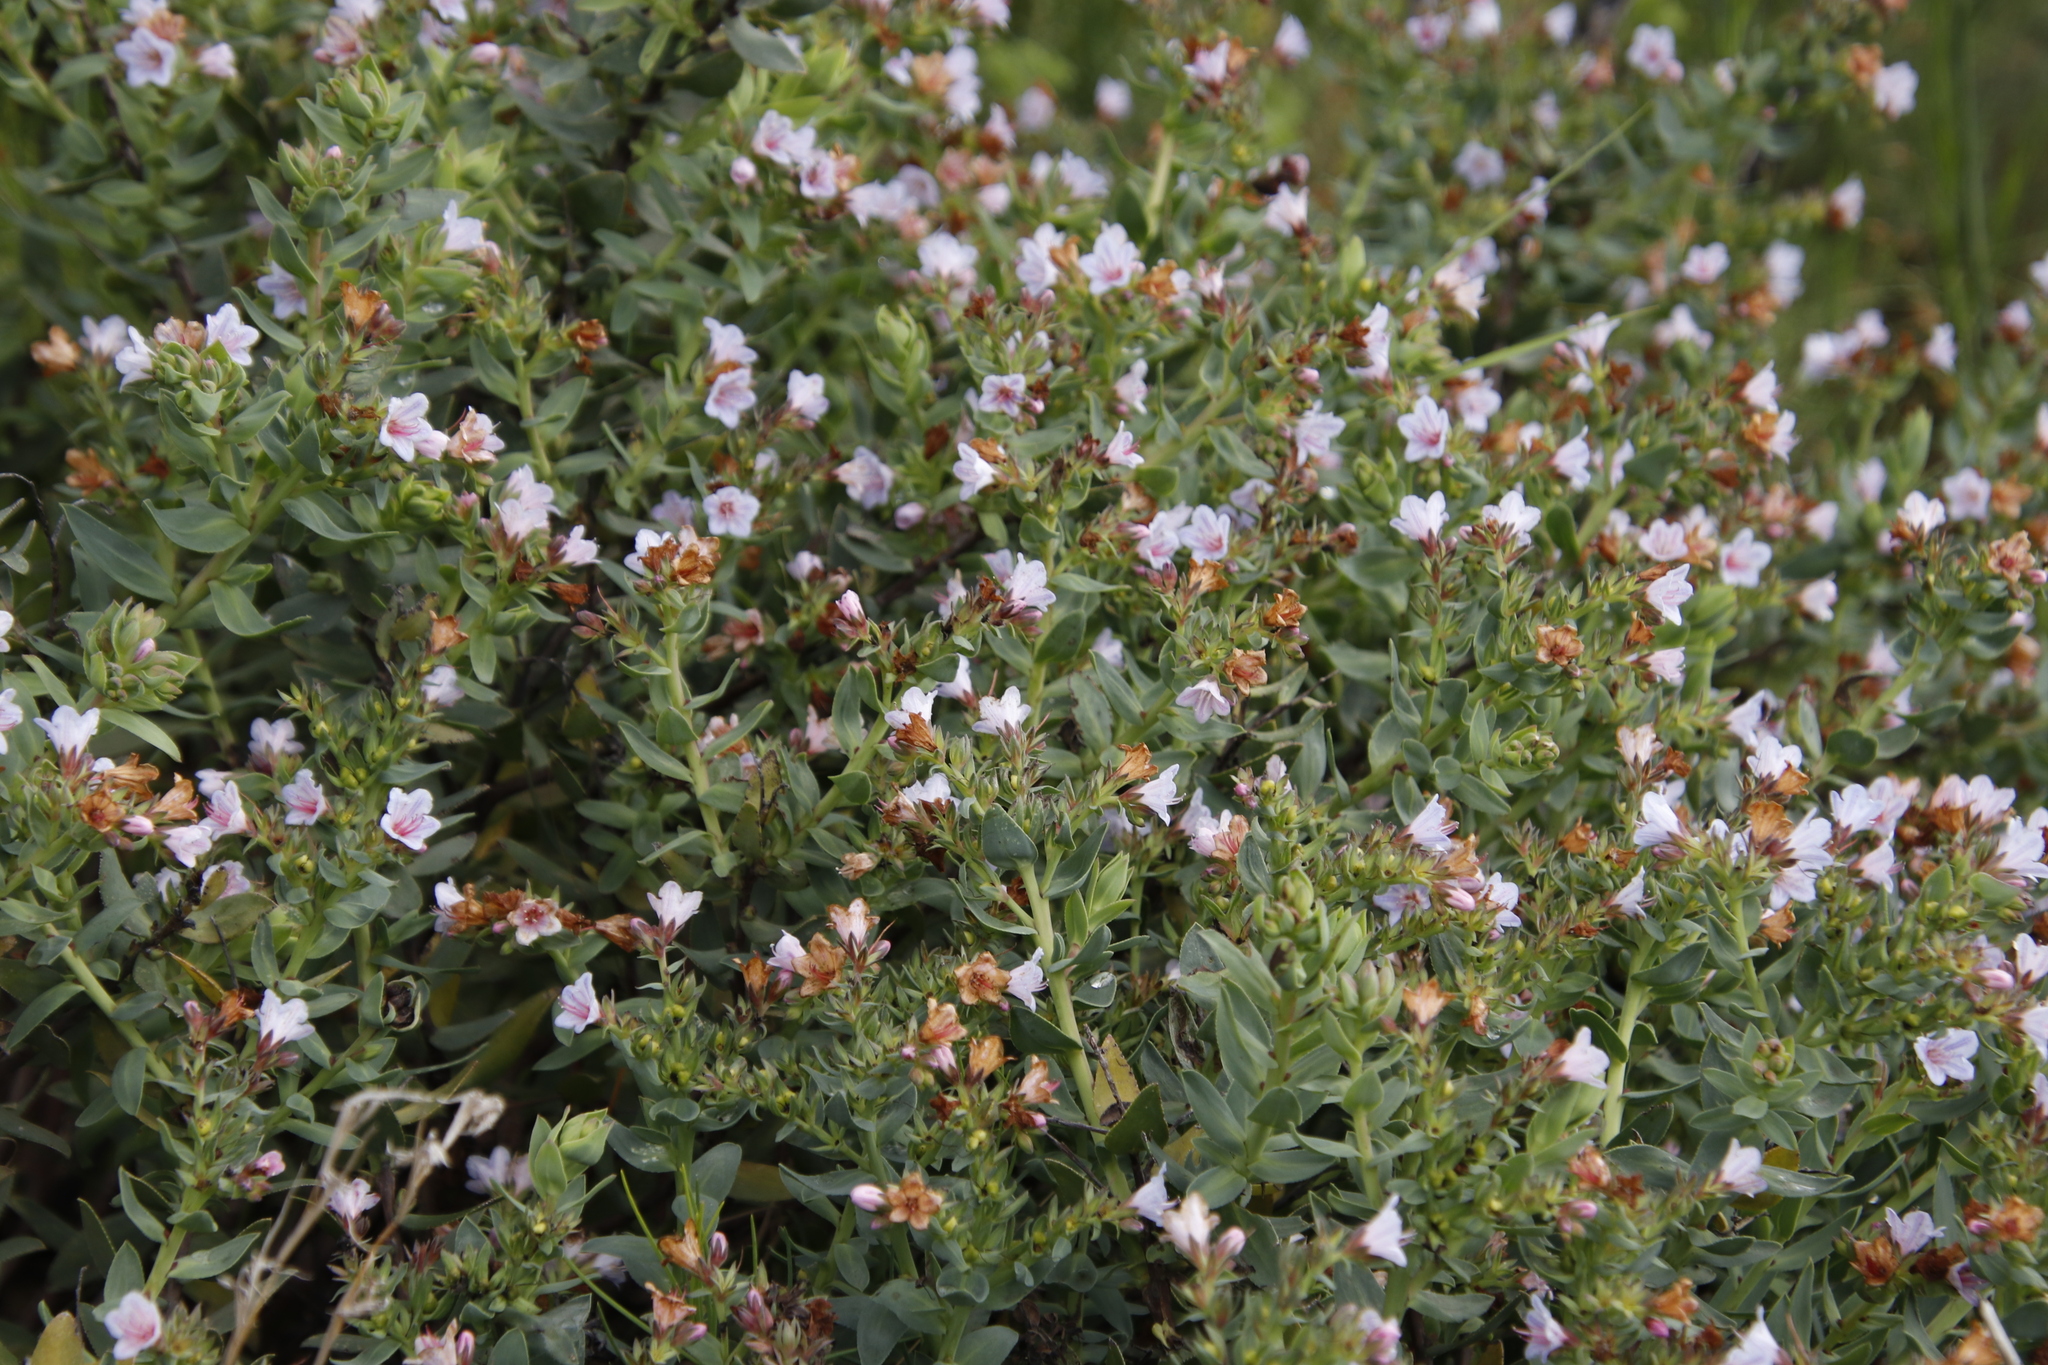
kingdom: Plantae
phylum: Tracheophyta
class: Magnoliopsida
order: Boraginales
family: Boraginaceae
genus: Lobostemon
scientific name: Lobostemon glaucophyllus
